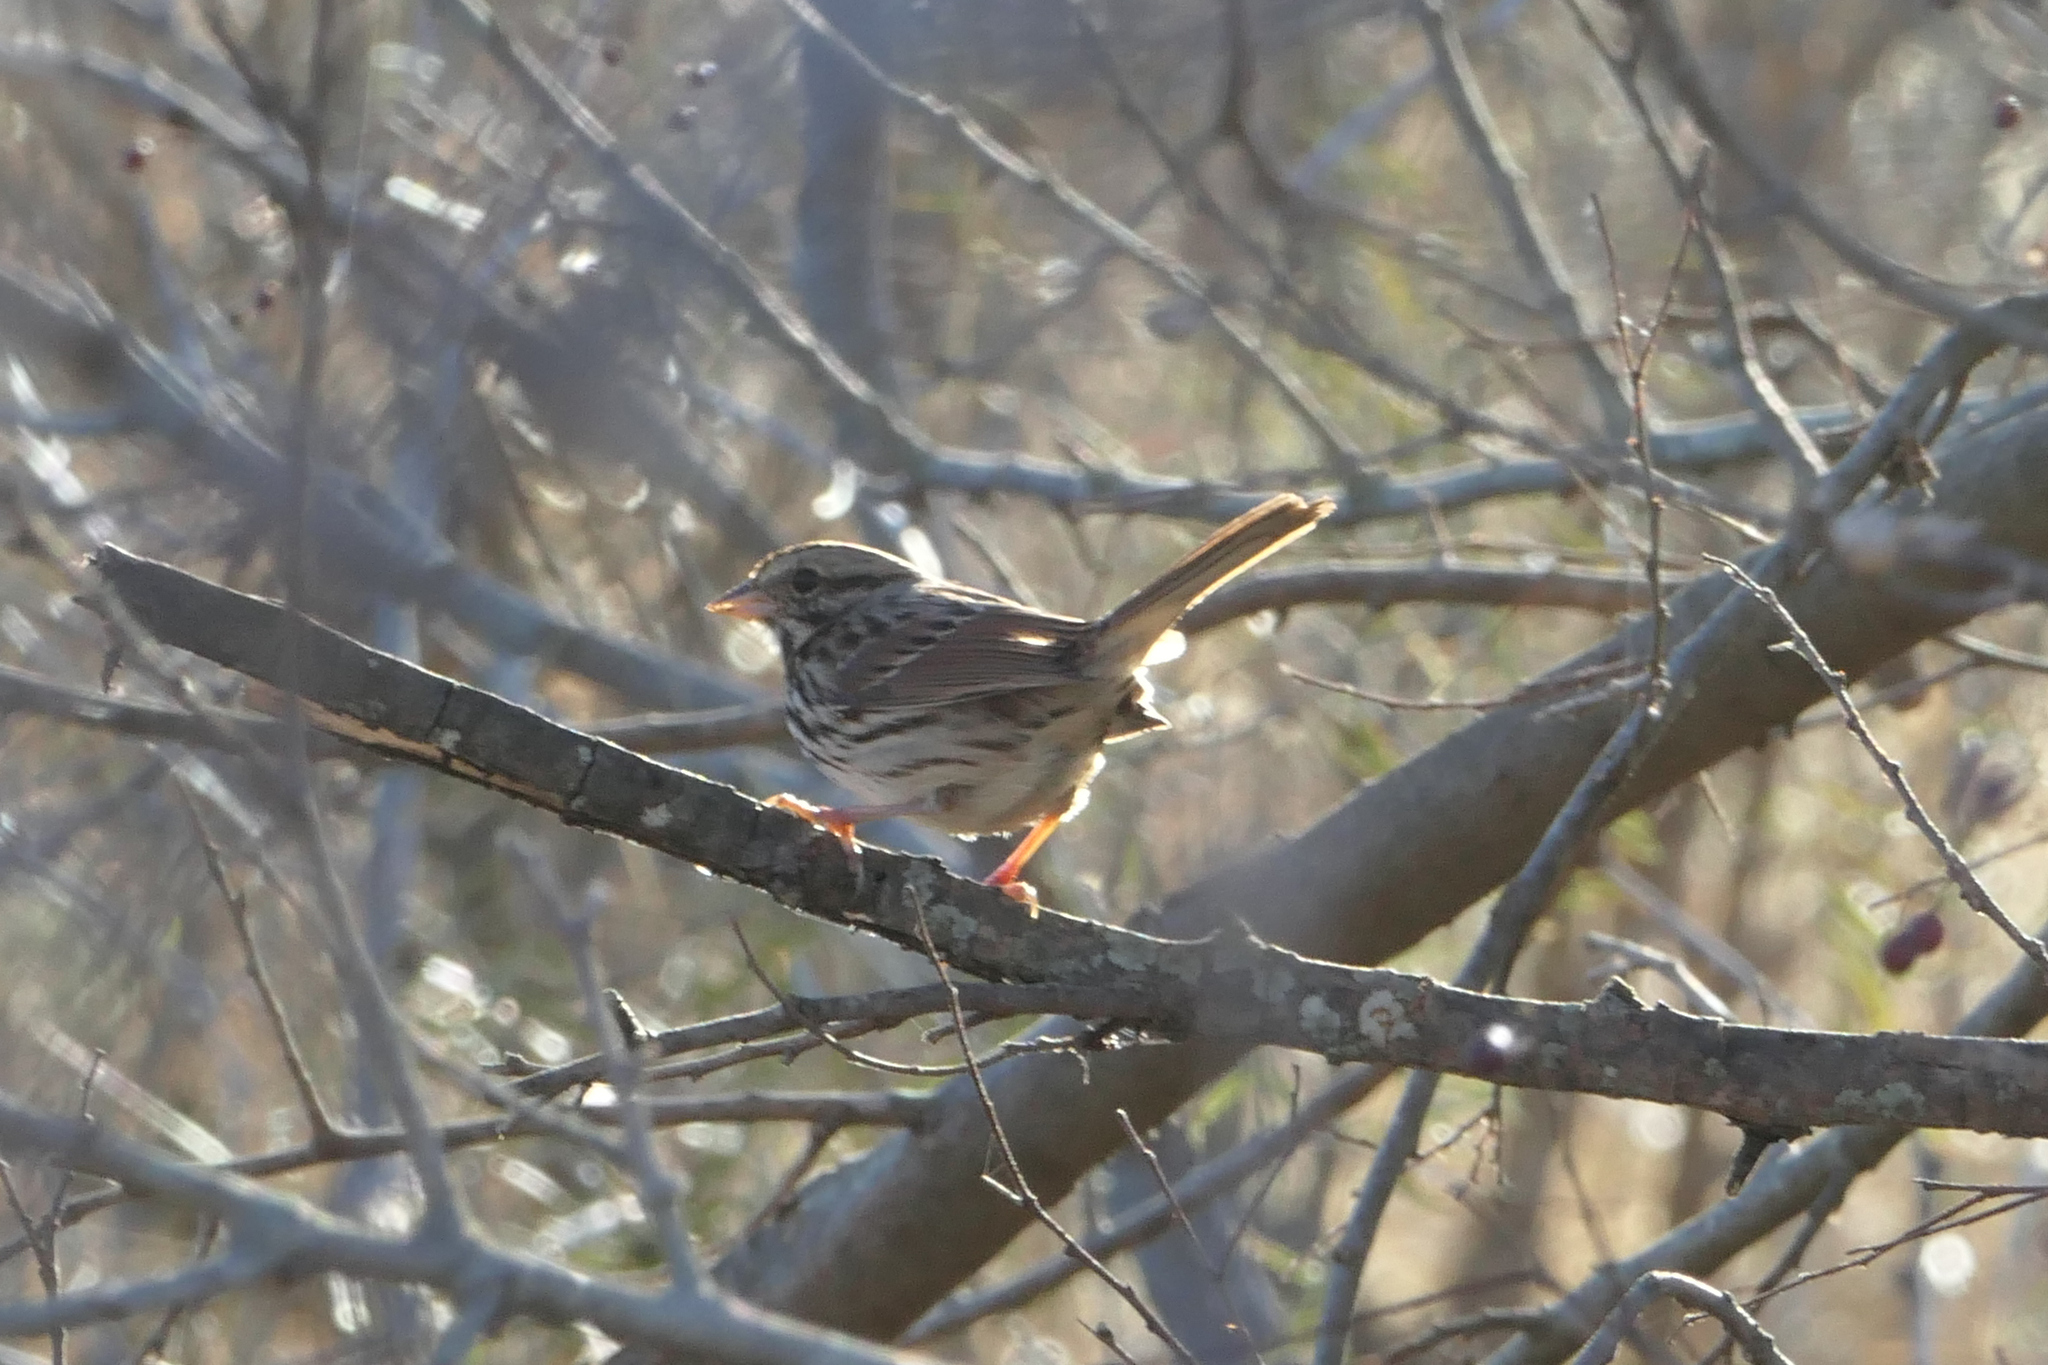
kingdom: Animalia
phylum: Chordata
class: Aves
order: Passeriformes
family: Passerellidae
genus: Melospiza
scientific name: Melospiza melodia
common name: Song sparrow
